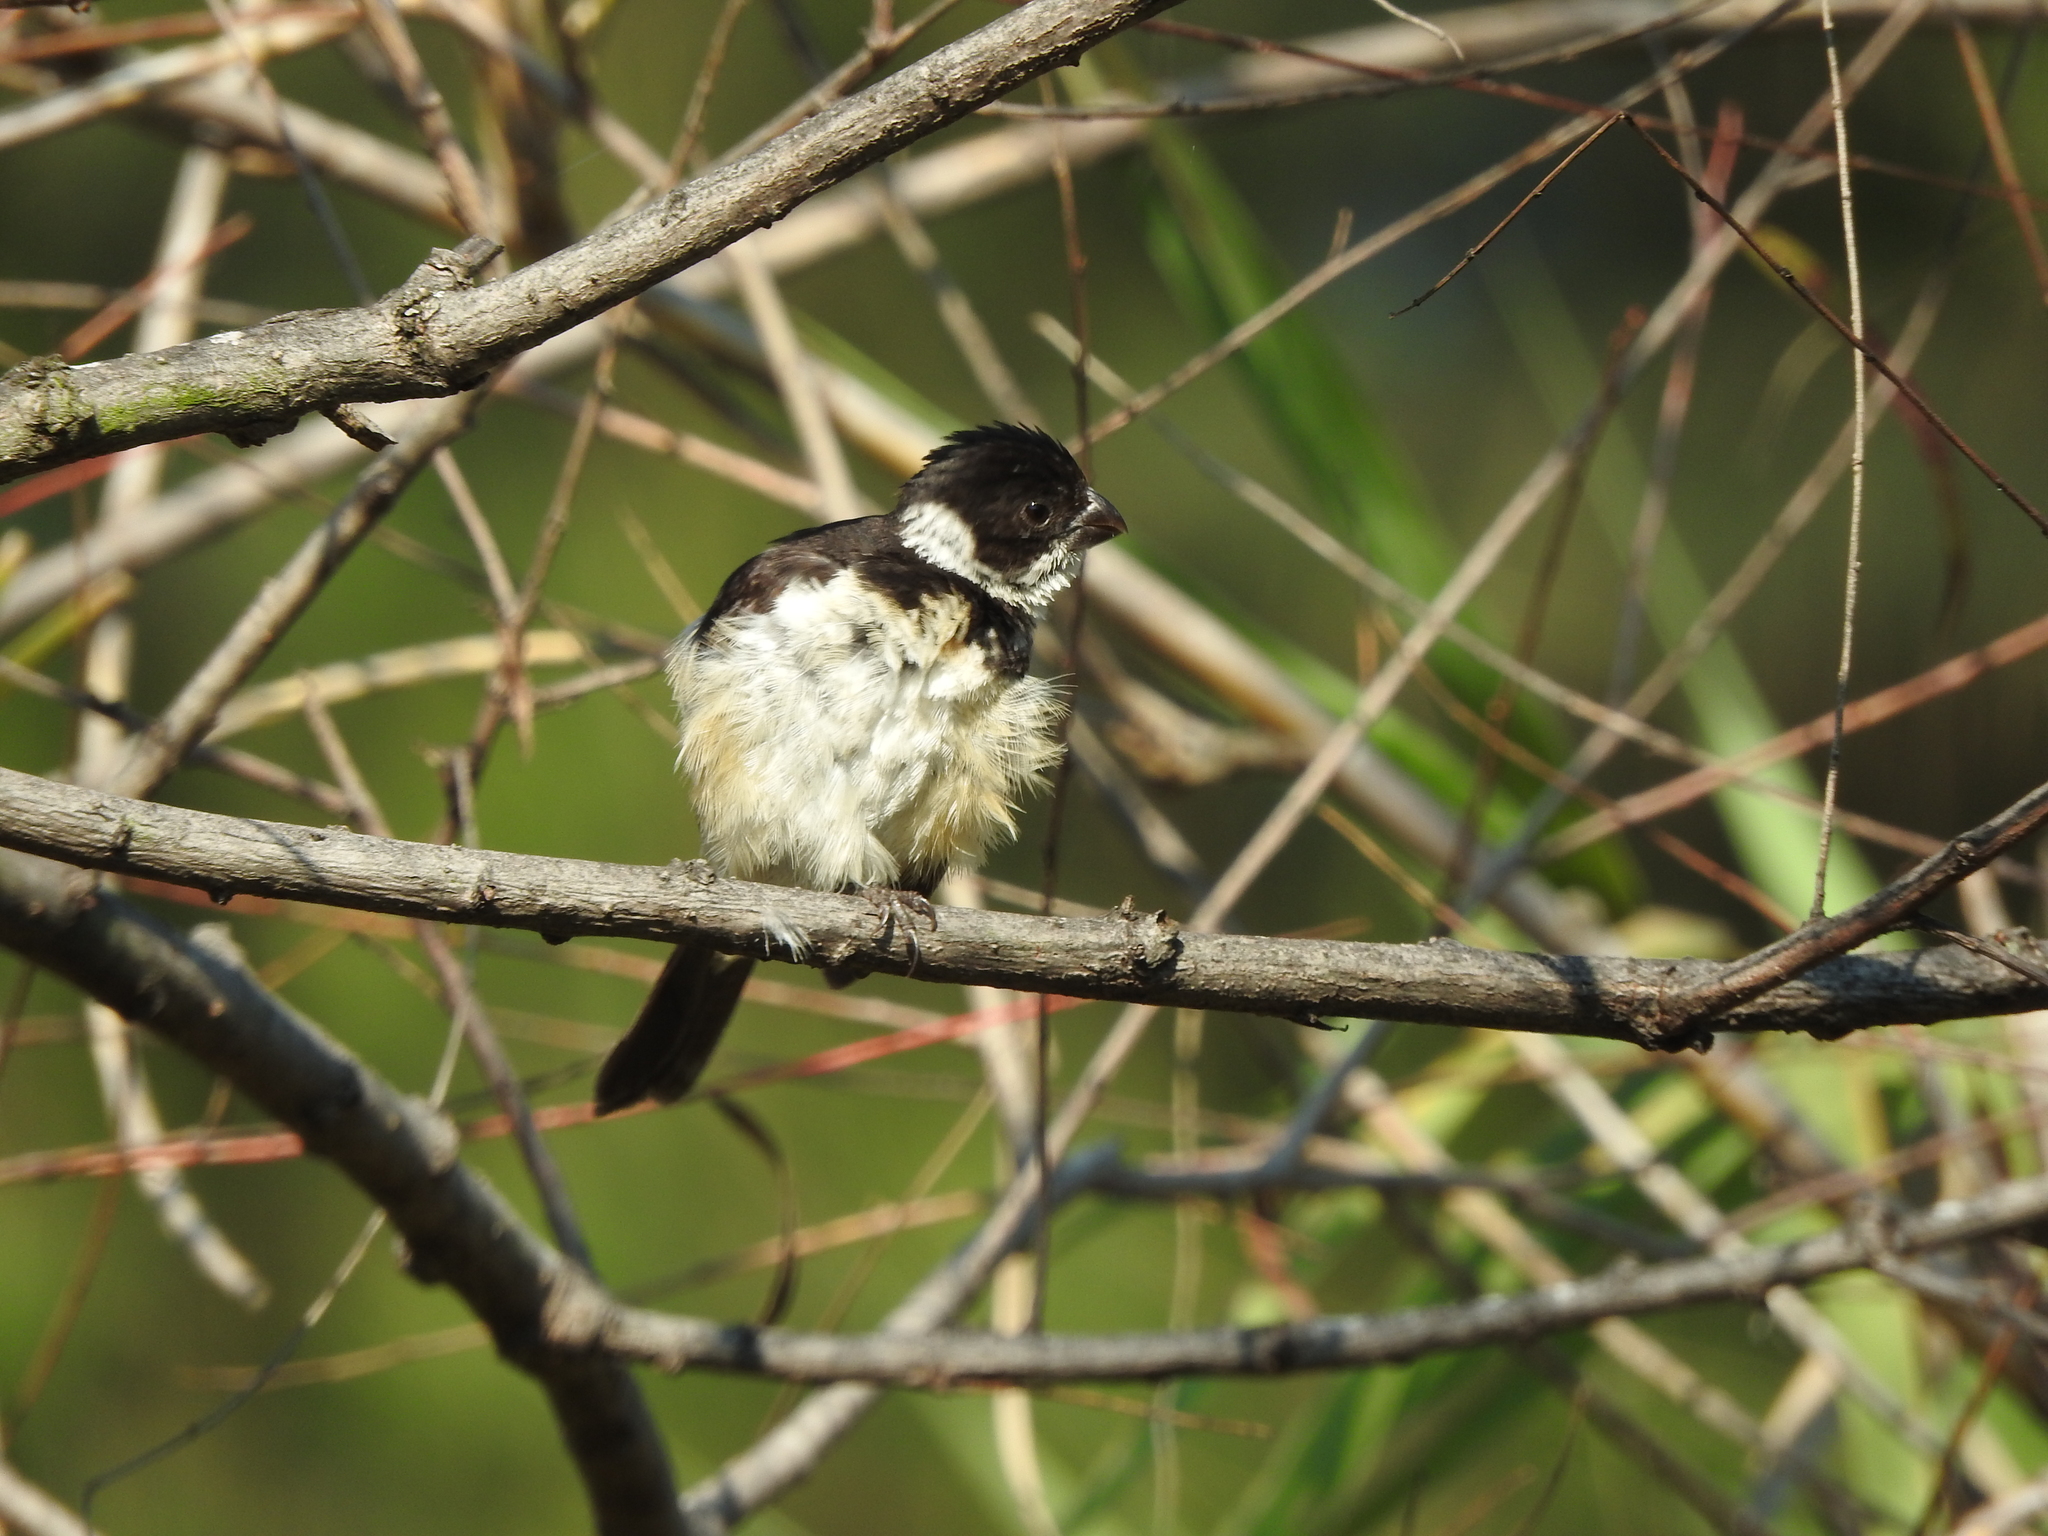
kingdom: Animalia
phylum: Chordata
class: Aves
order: Passeriformes
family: Thraupidae
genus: Sporophila
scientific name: Sporophila torqueola
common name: White-collared seedeater
